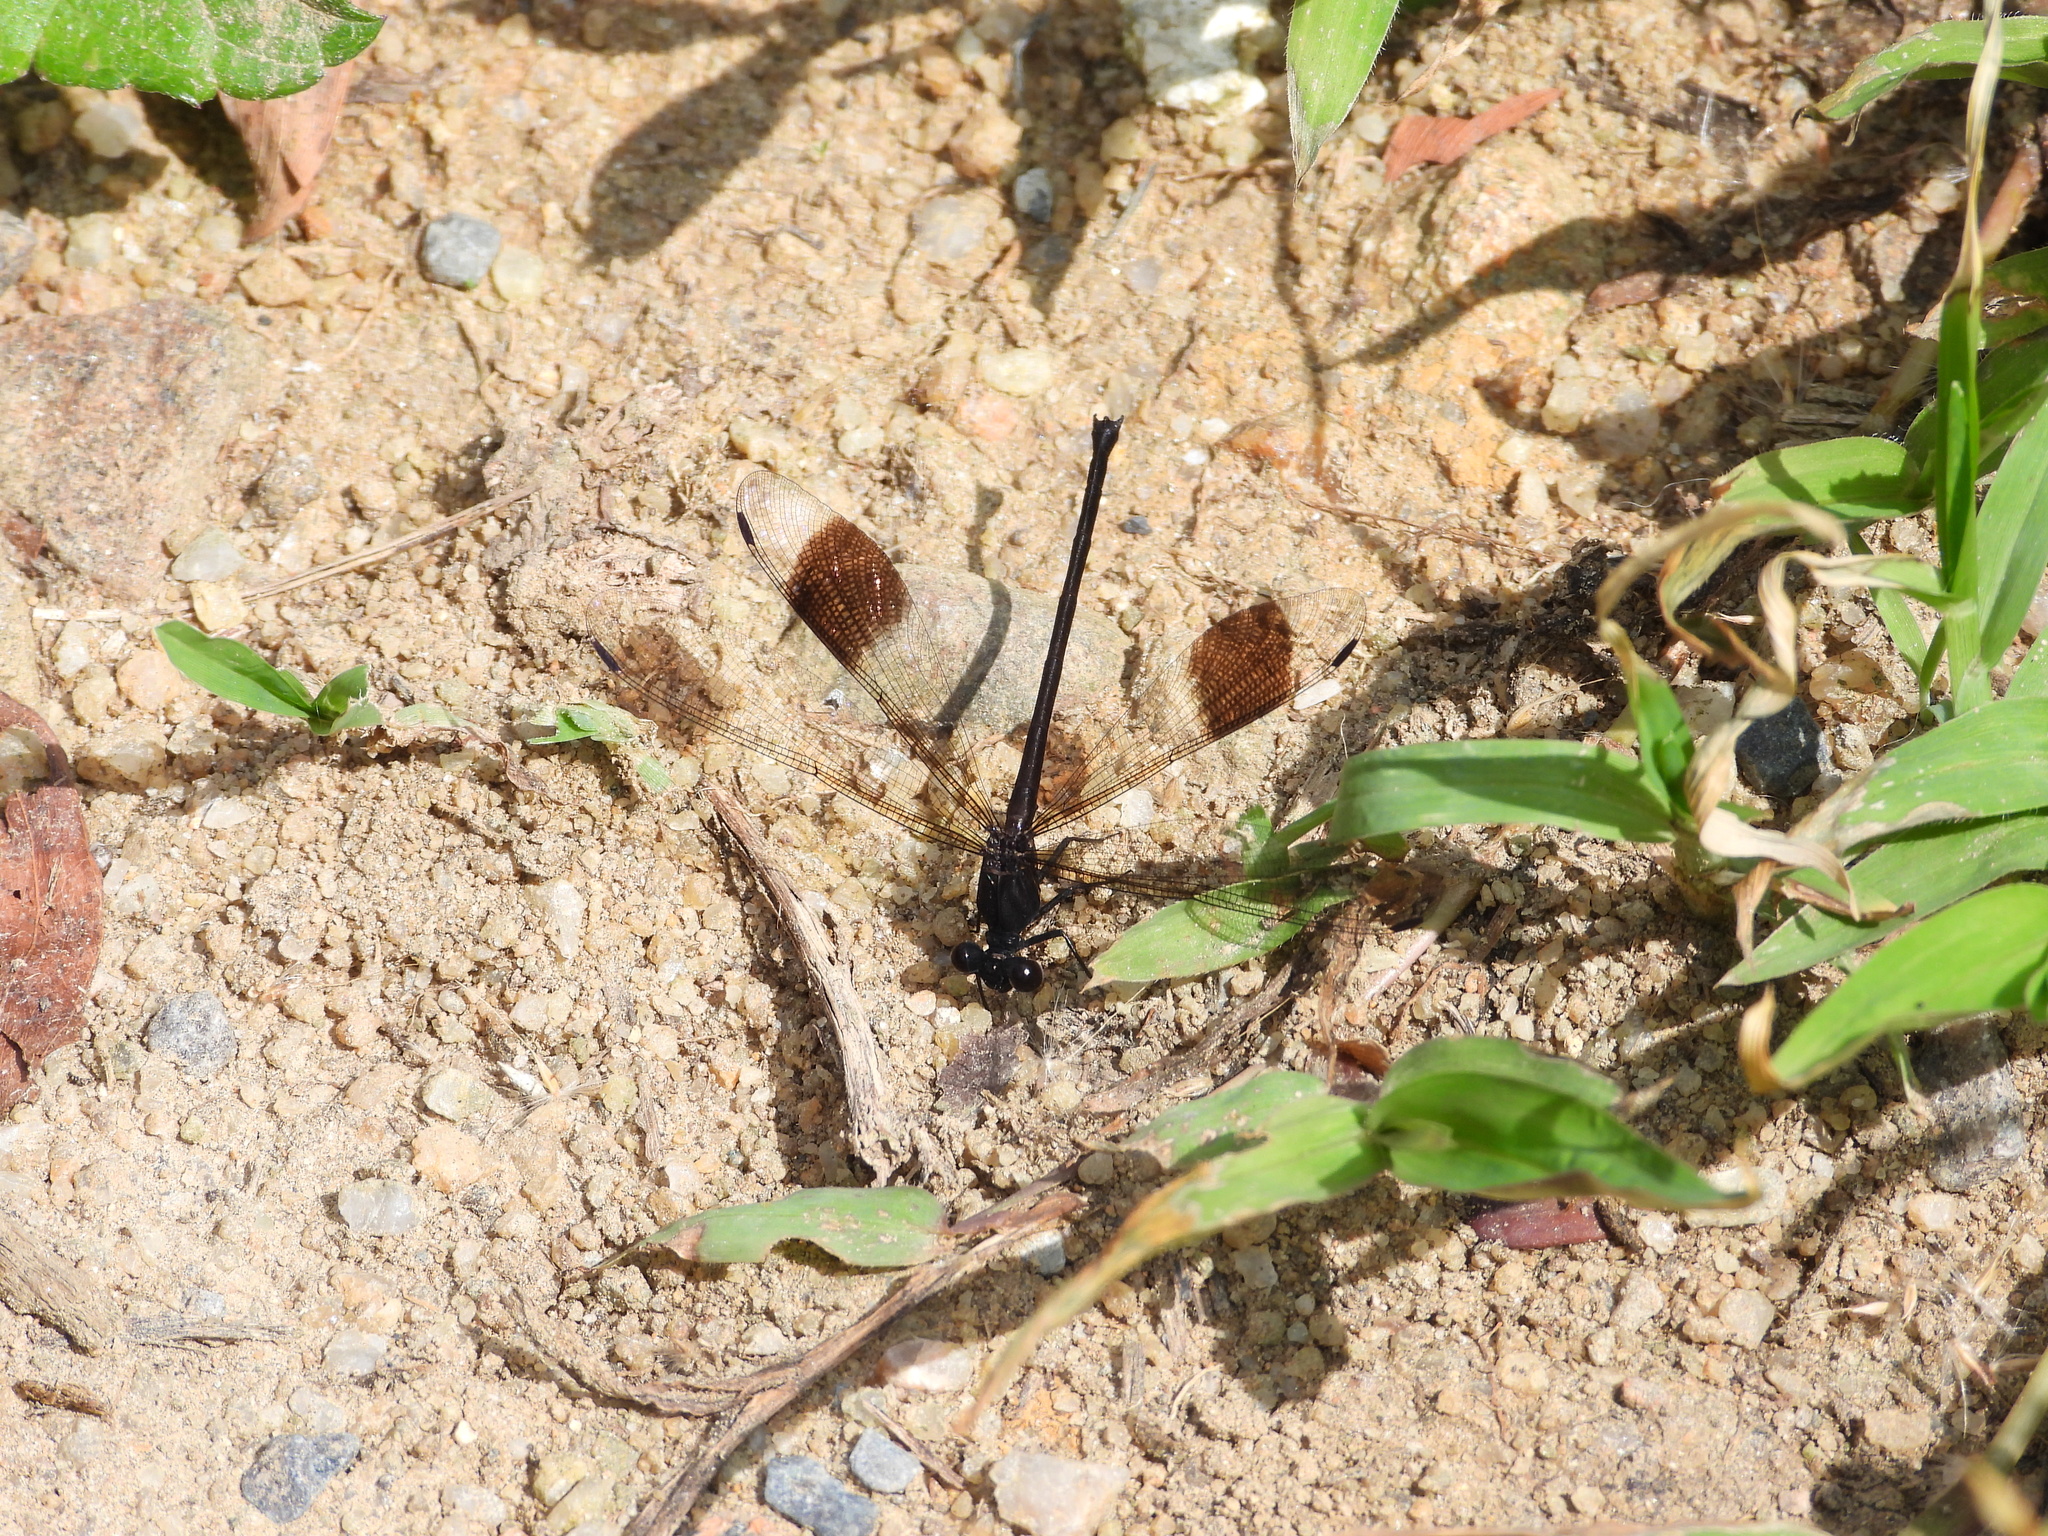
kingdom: Animalia
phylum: Arthropoda
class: Insecta
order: Odonata
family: Euphaeidae
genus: Euphaea
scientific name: Euphaea decorata
